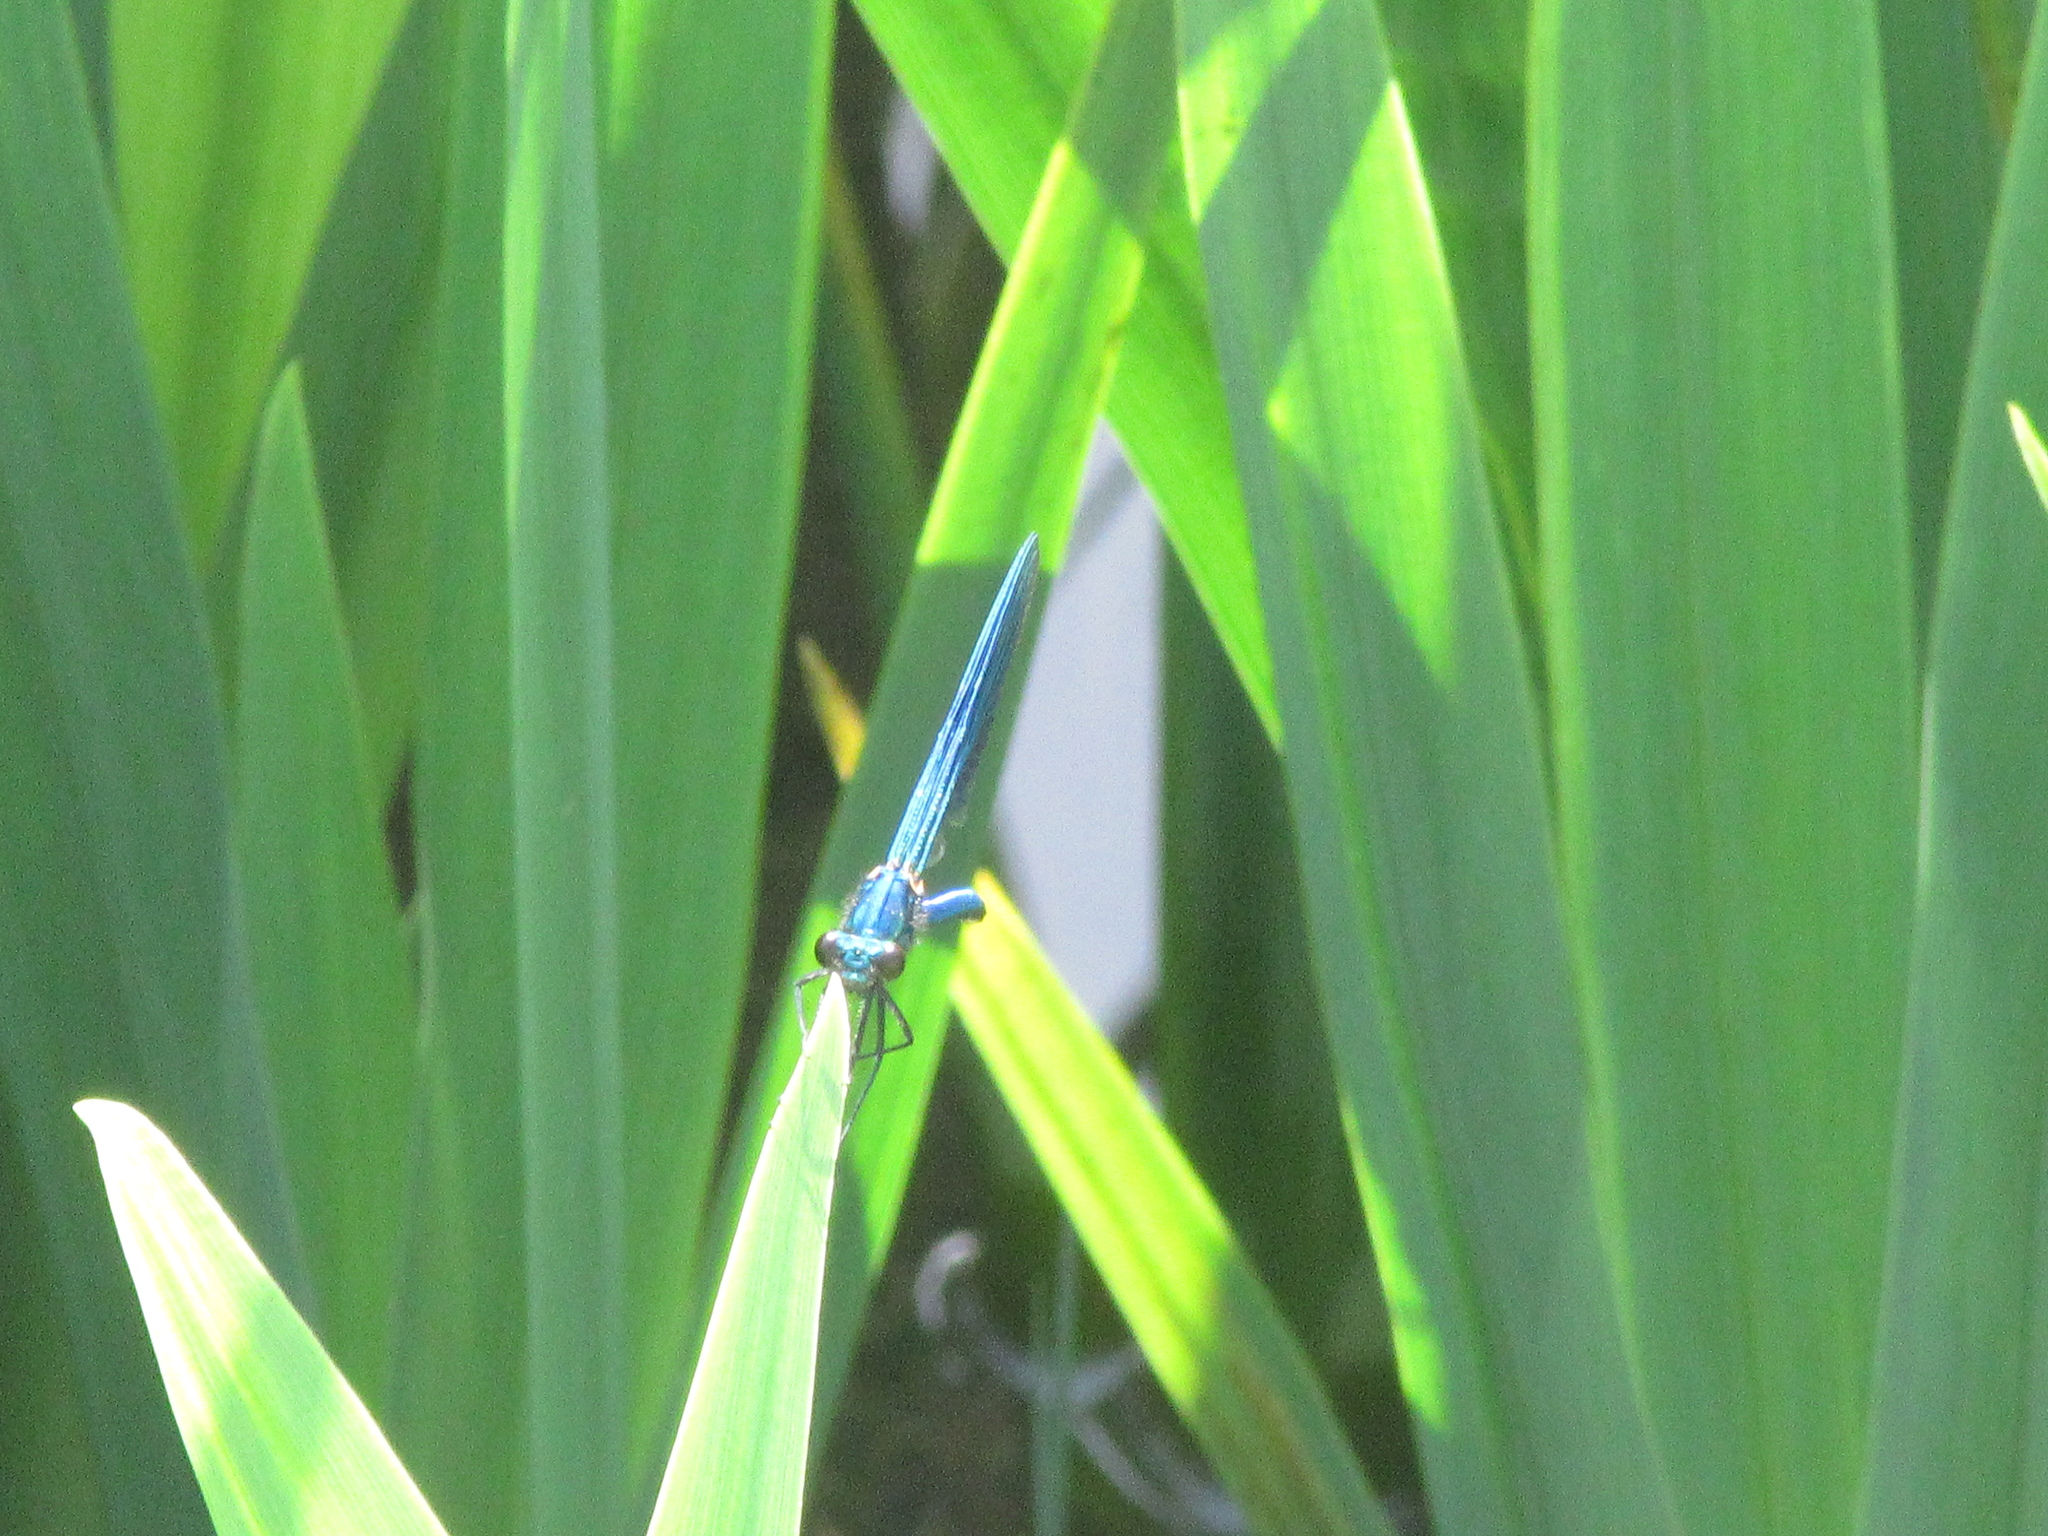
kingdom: Animalia
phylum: Arthropoda
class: Insecta
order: Odonata
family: Calopterygidae
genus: Calopteryx
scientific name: Calopteryx splendens
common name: Banded demoiselle
